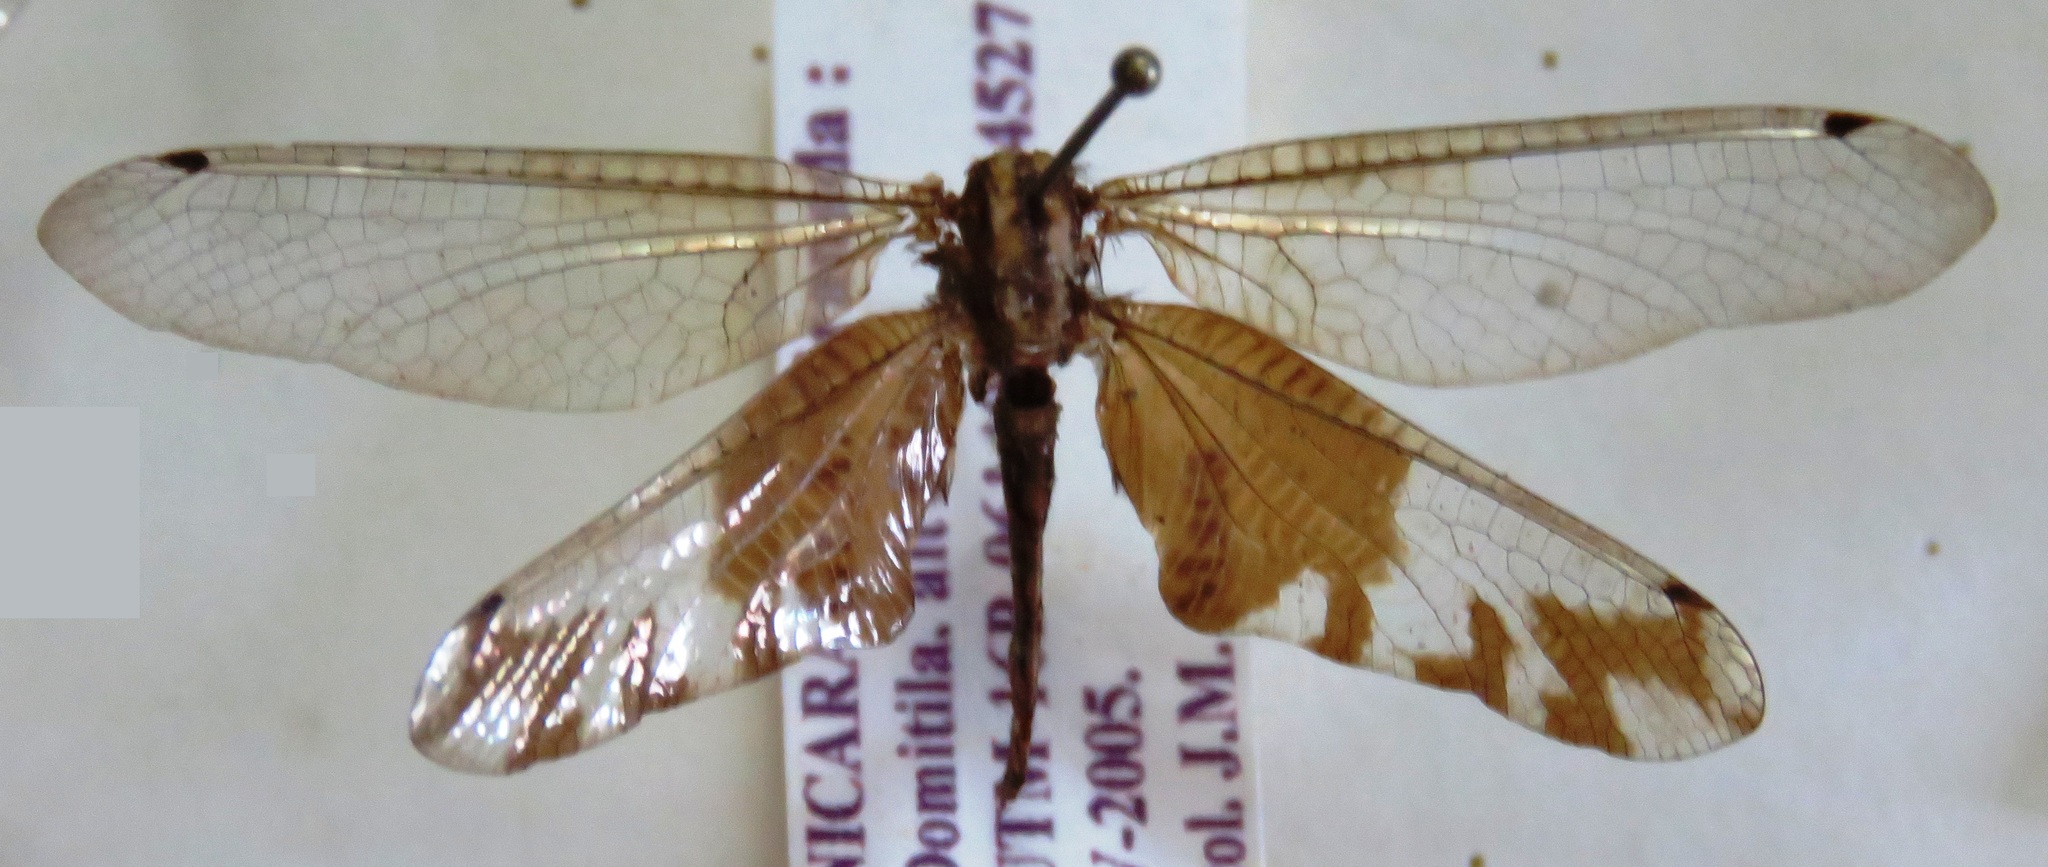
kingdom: Animalia
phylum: Arthropoda
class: Insecta
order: Neuroptera
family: Ascalaphidae
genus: Cordulecerus
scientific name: Cordulecerus subiratus
